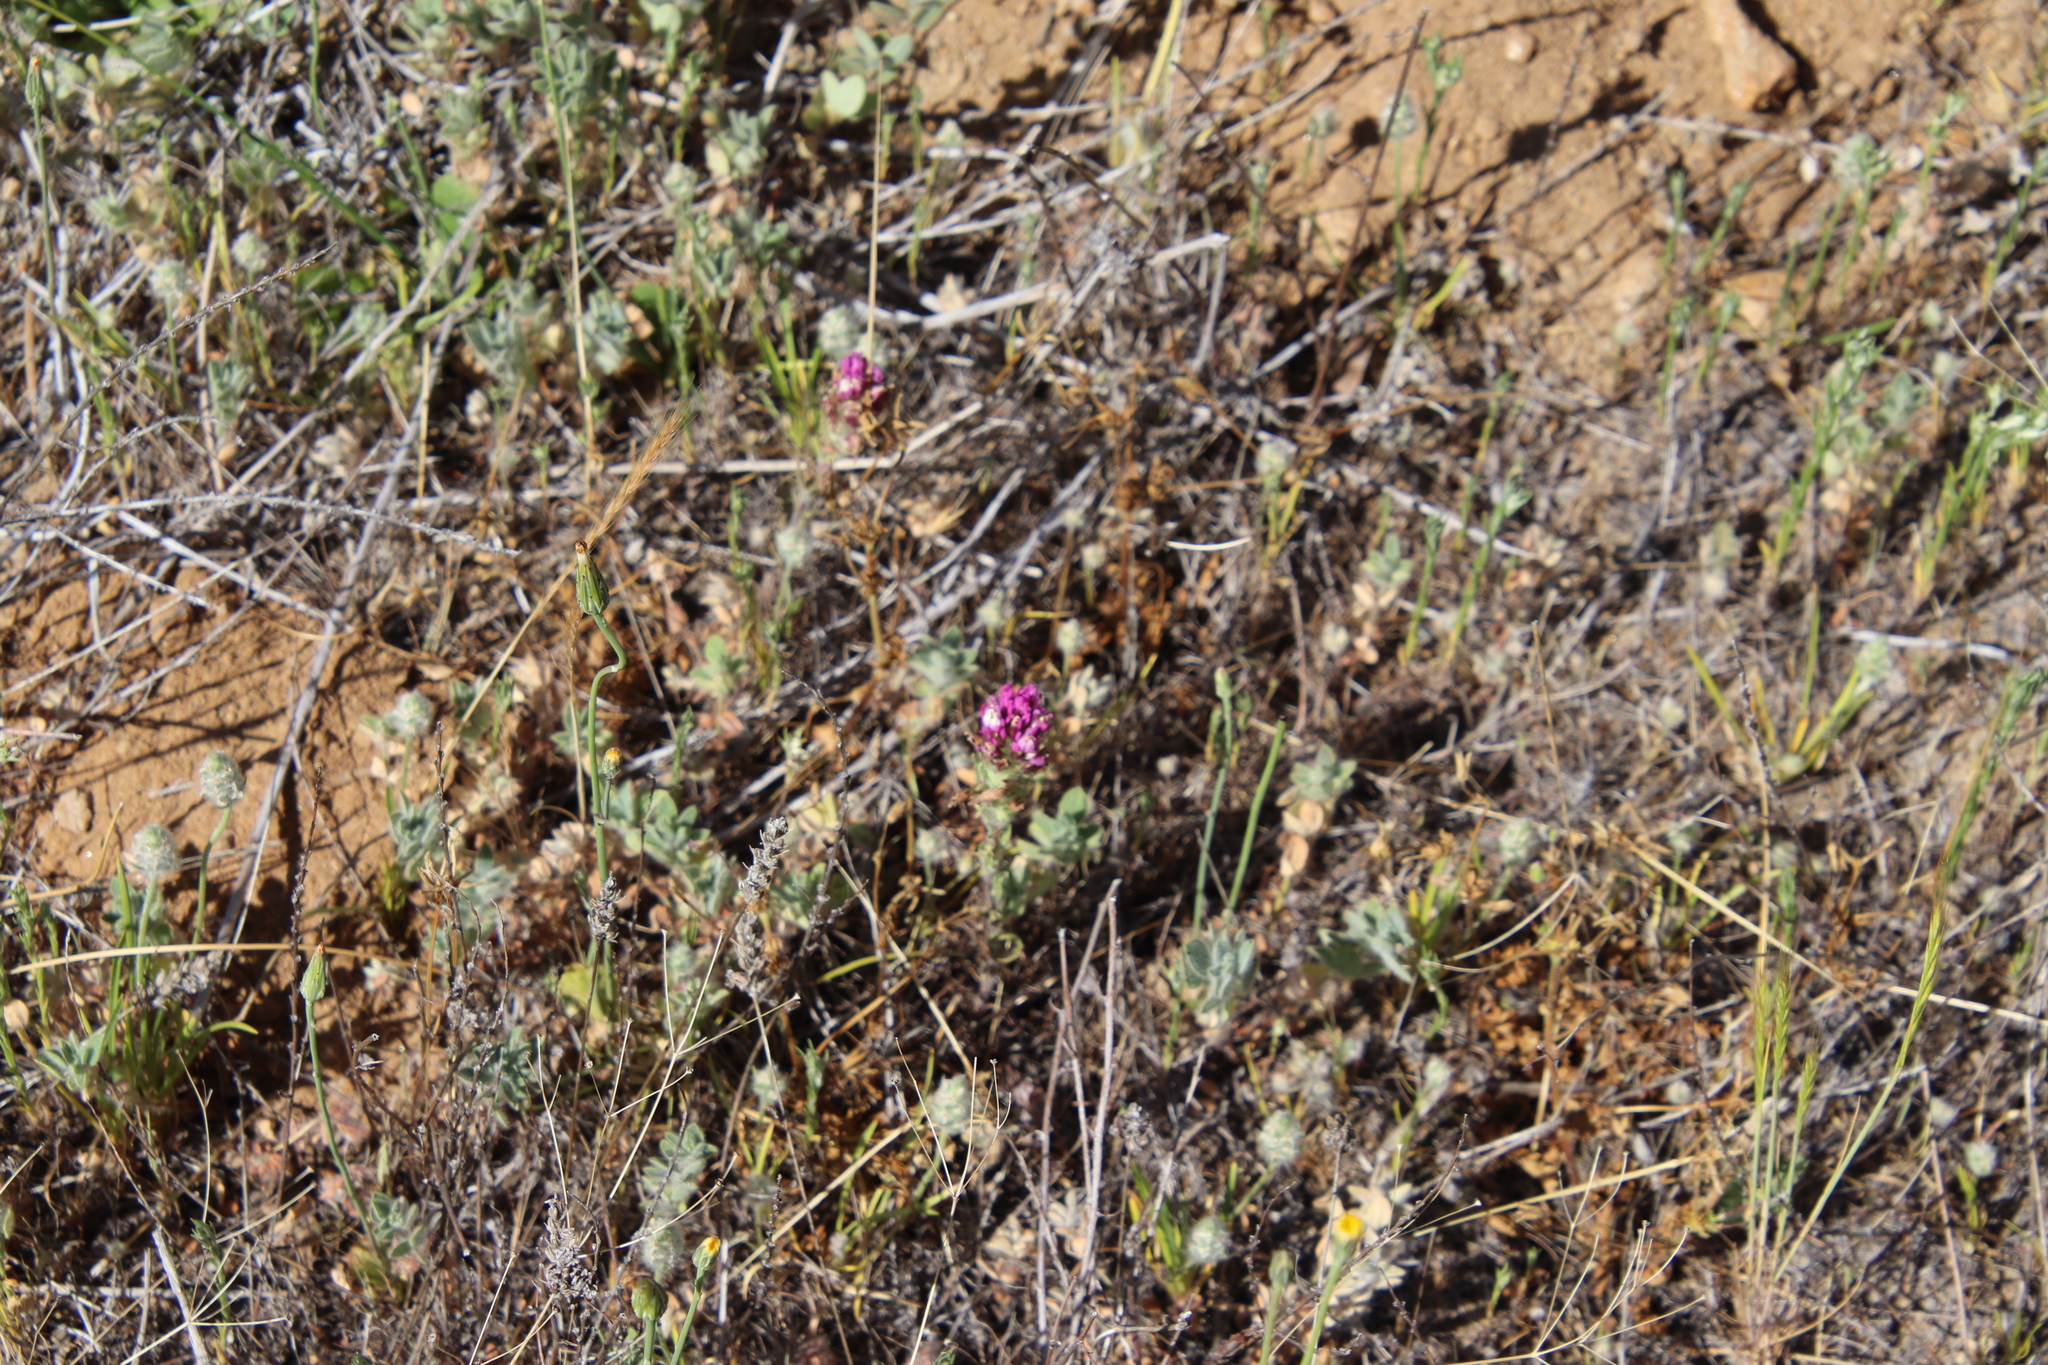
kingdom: Plantae
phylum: Tracheophyta
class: Magnoliopsida
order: Lamiales
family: Orobanchaceae
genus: Castilleja
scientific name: Castilleja exserta
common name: Purple owl-clover
